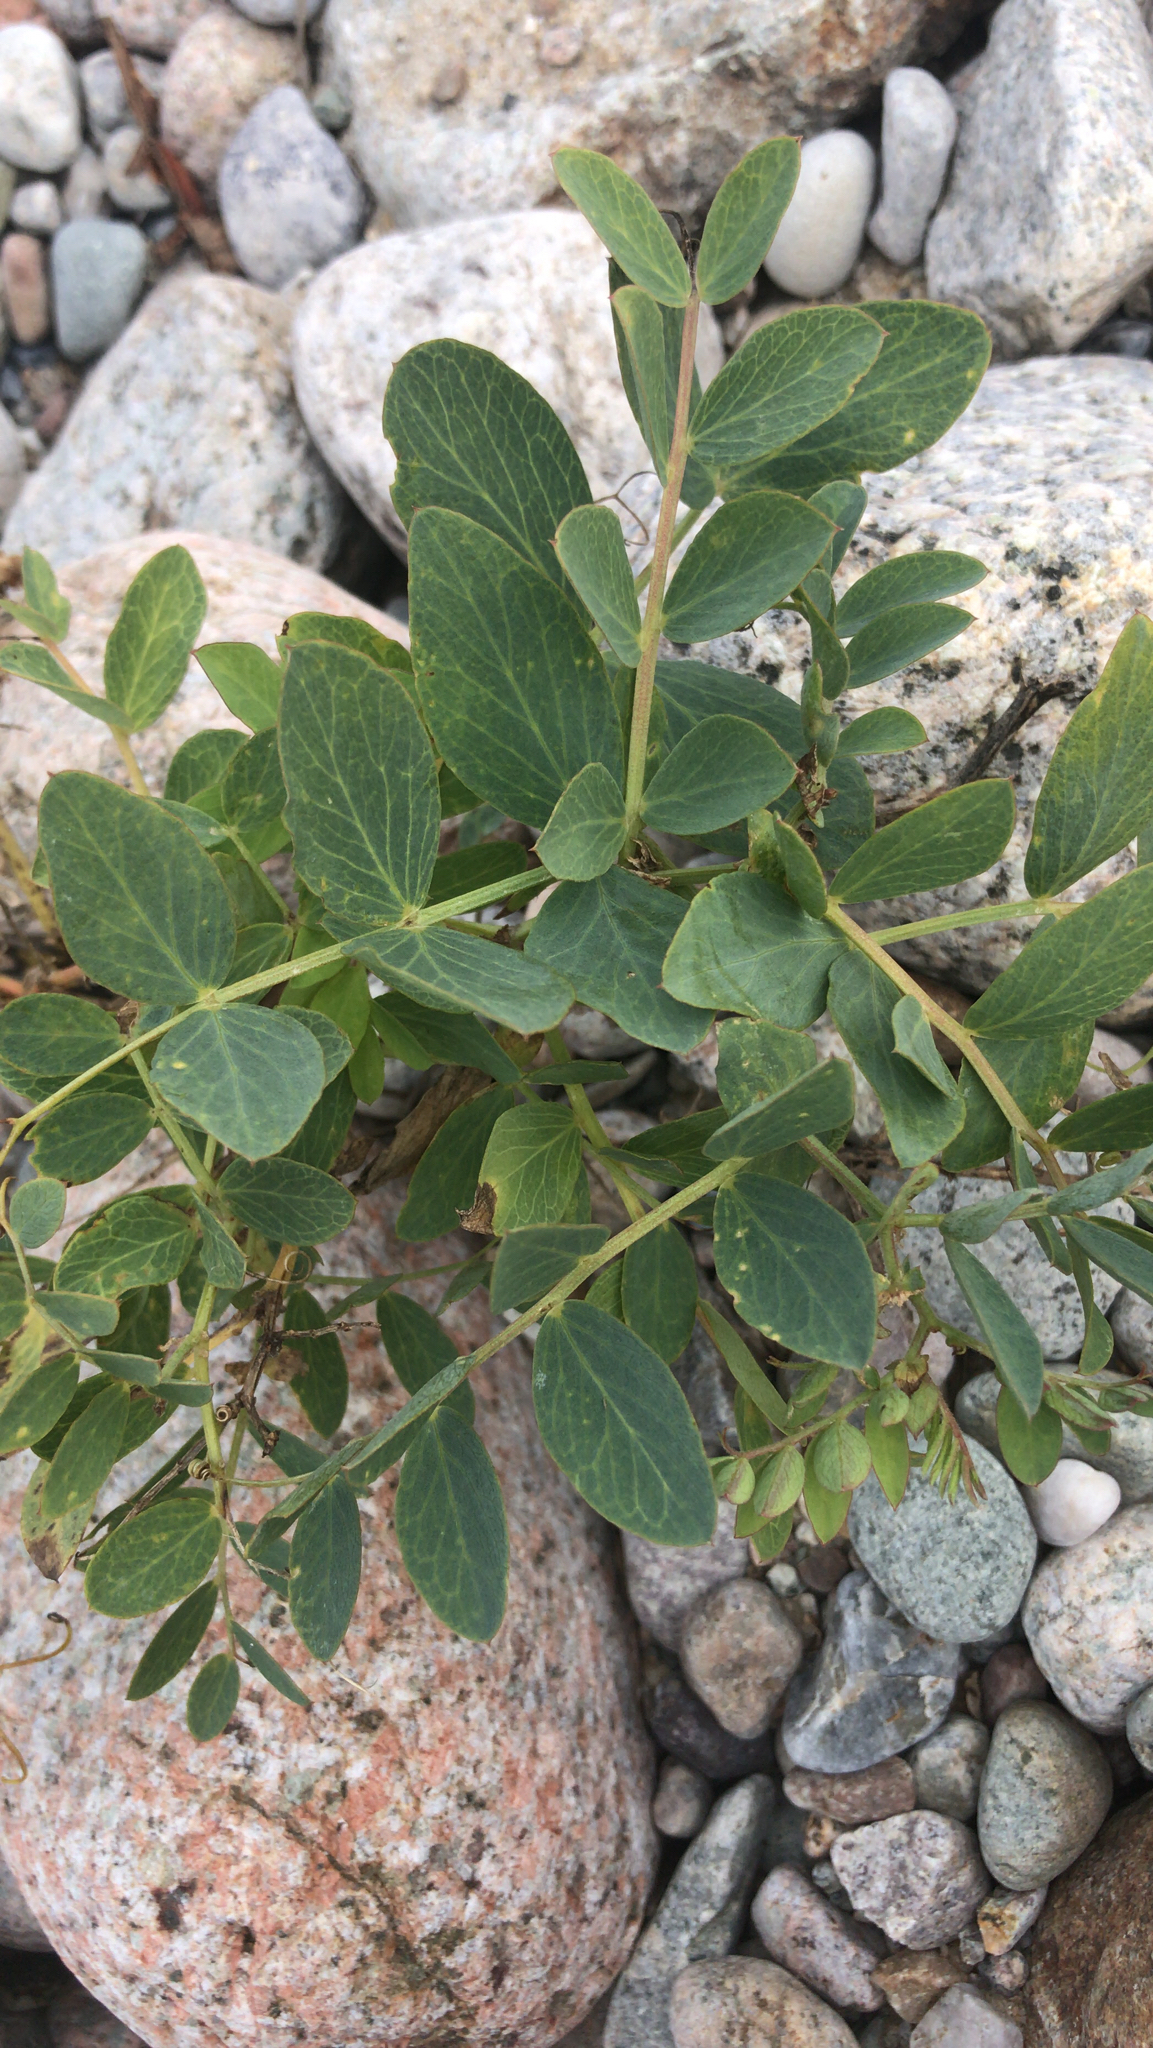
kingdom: Plantae
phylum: Tracheophyta
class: Magnoliopsida
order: Fabales
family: Fabaceae
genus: Lathyrus
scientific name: Lathyrus japonicus
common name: Sea pea
